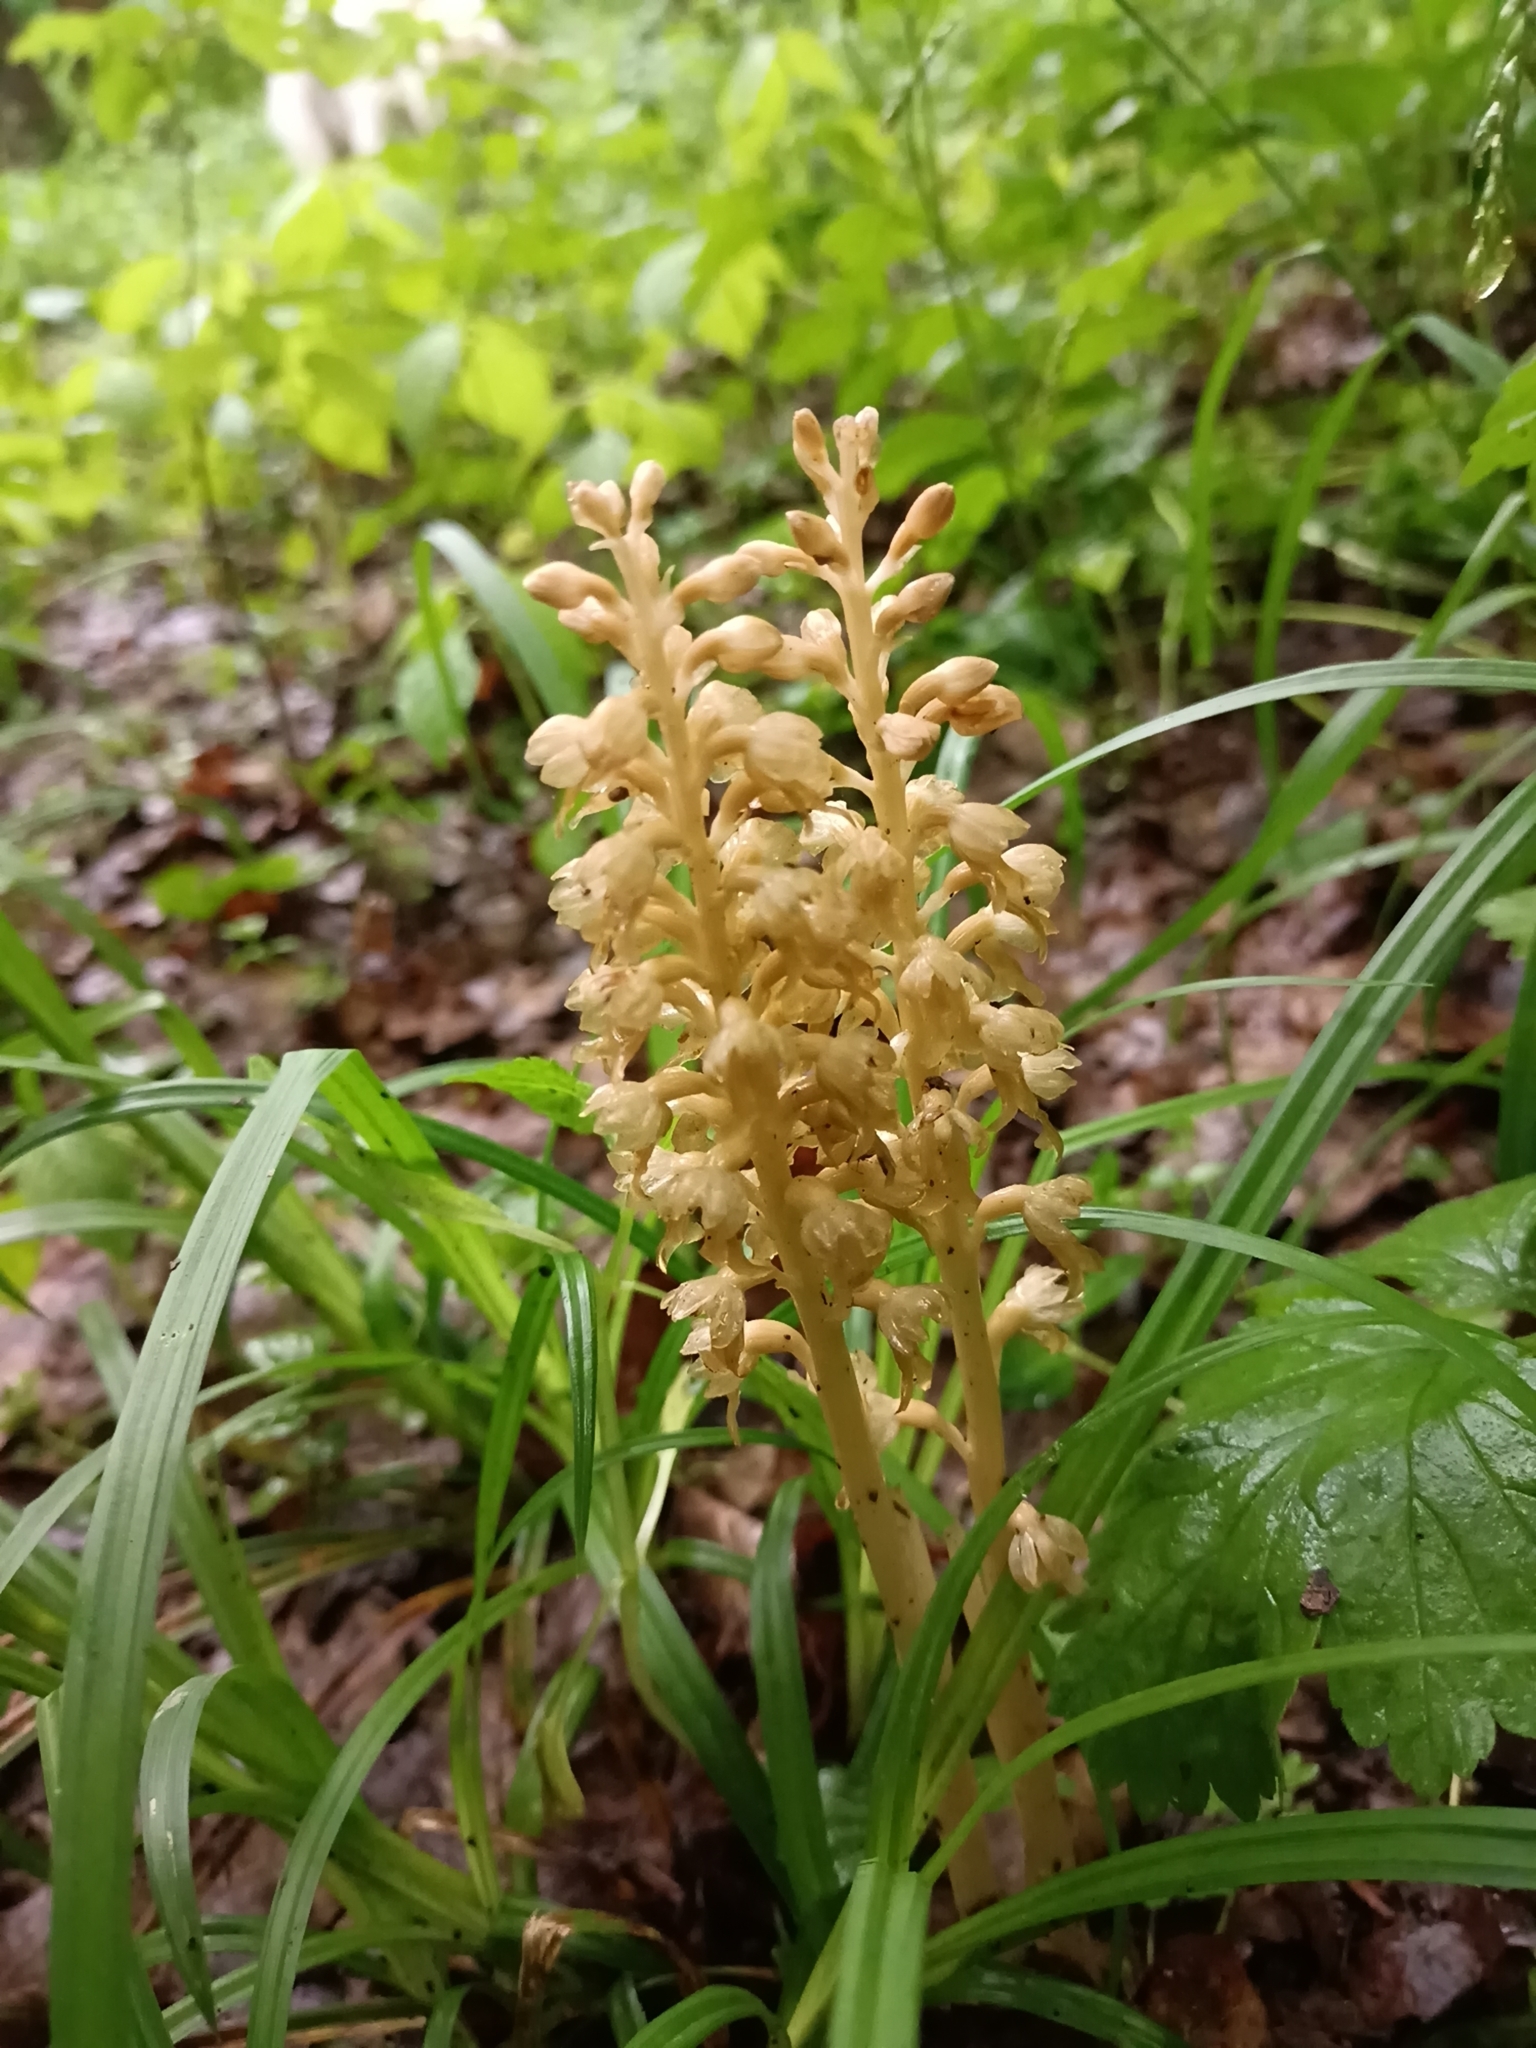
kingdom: Plantae
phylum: Tracheophyta
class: Liliopsida
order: Asparagales
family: Orchidaceae
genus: Neottia
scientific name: Neottia nidus-avis
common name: Bird's-nest orchid
